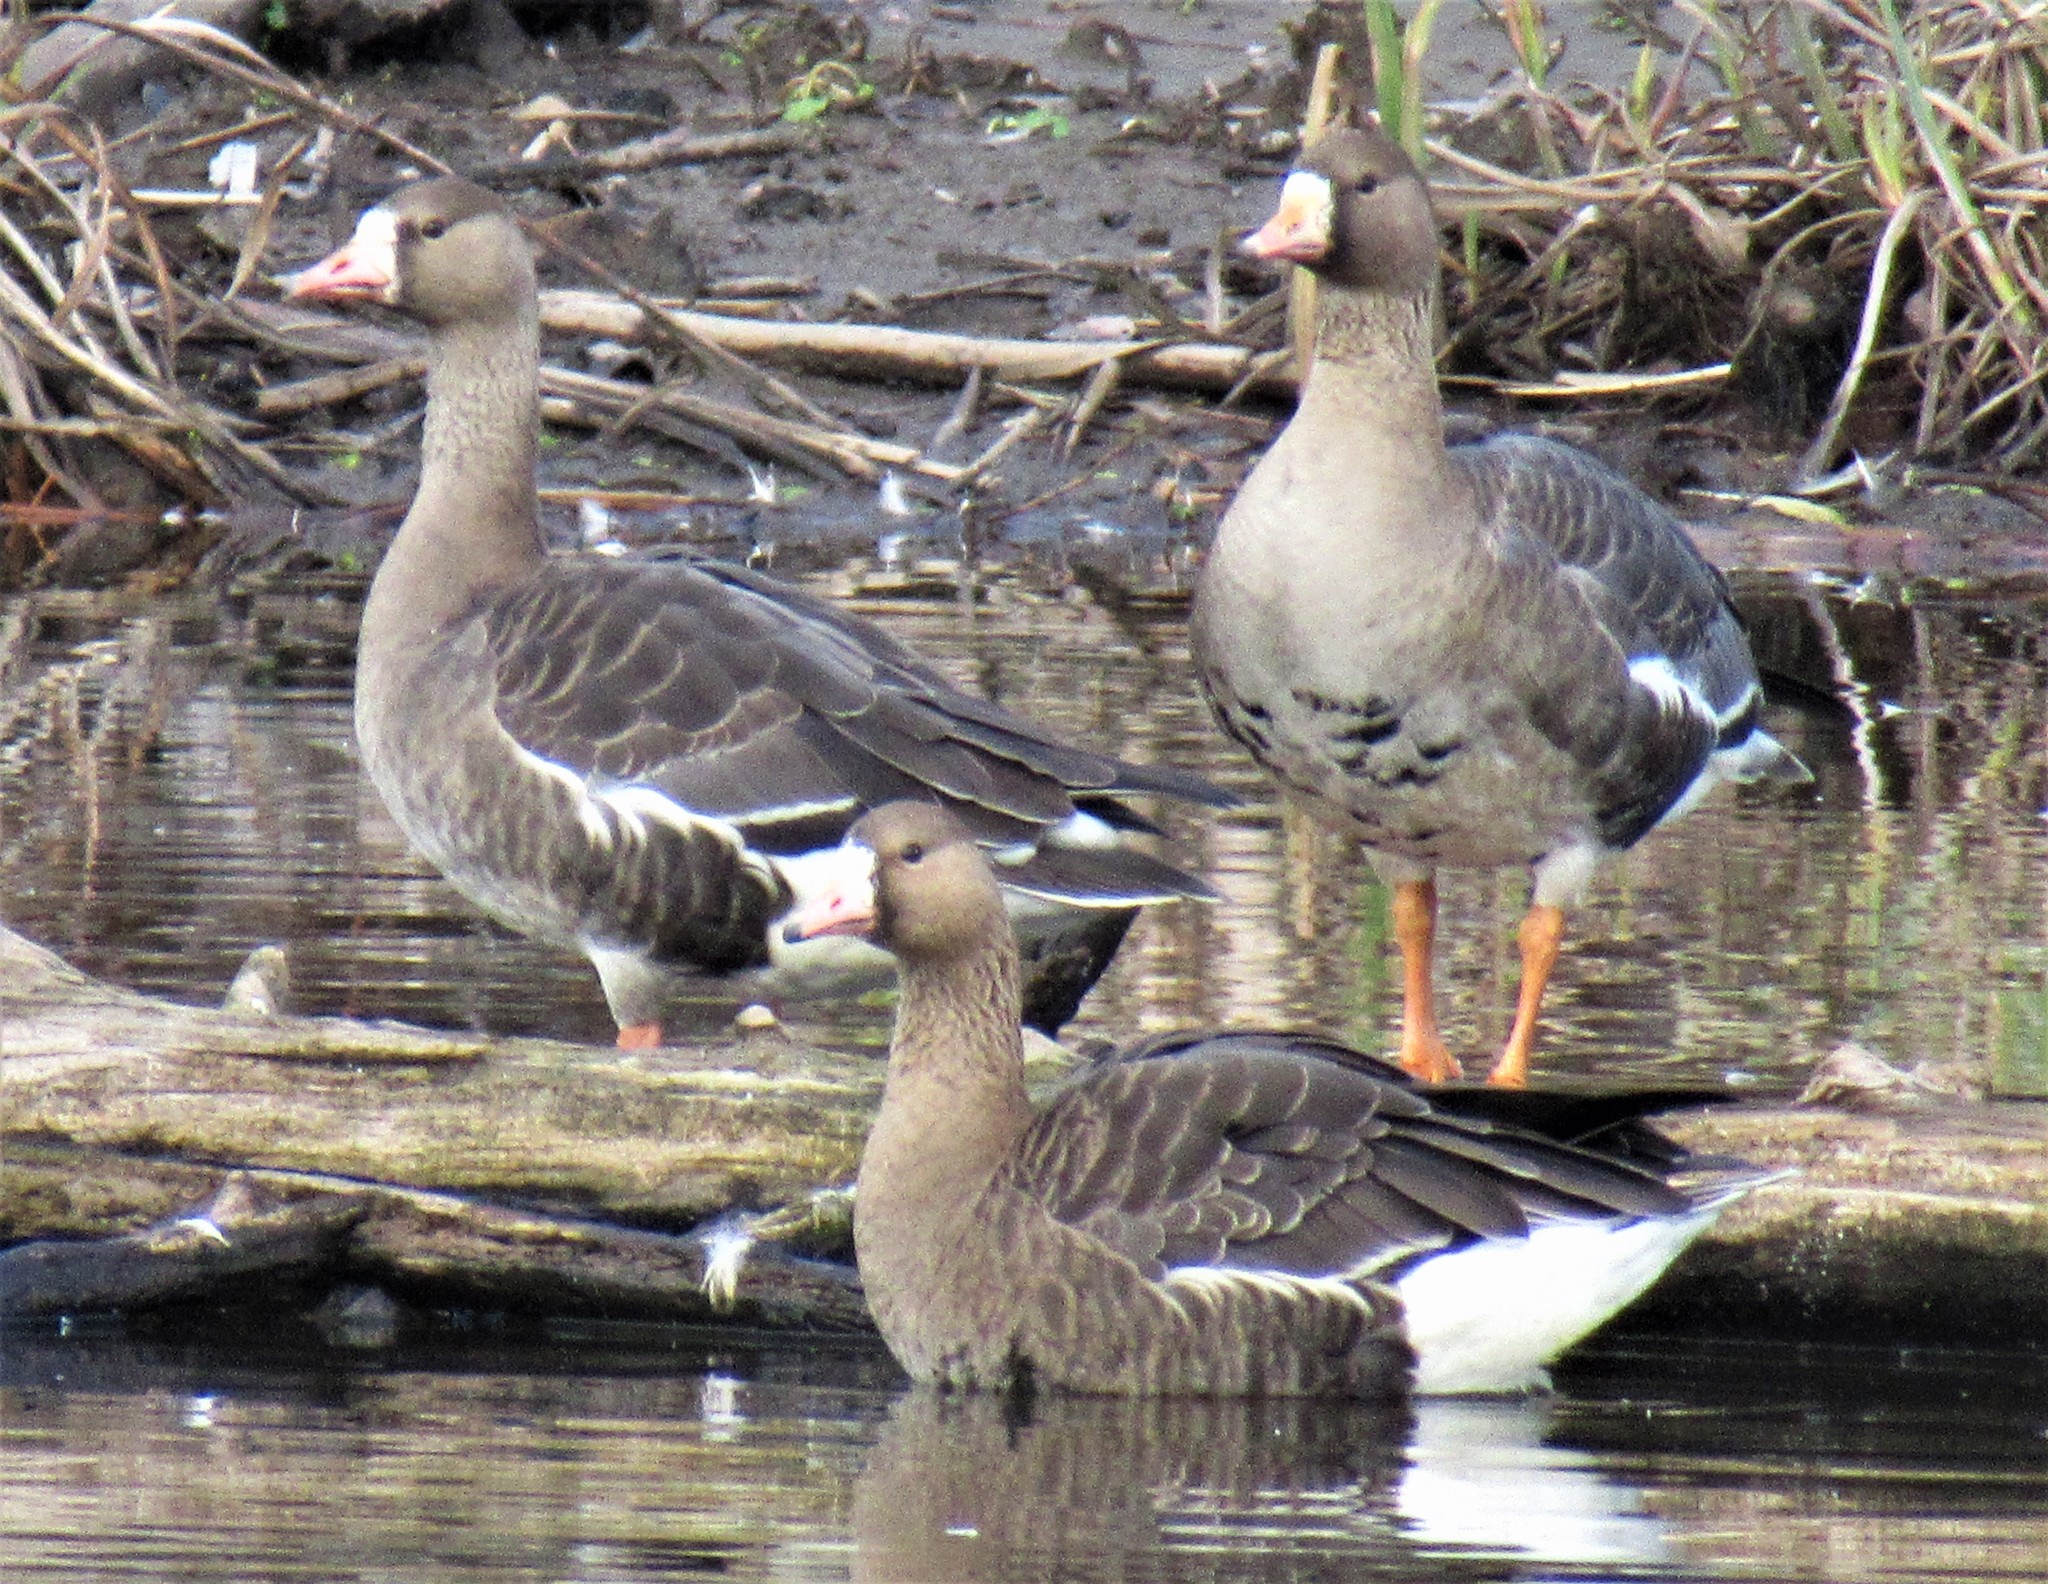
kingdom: Animalia
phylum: Chordata
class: Aves
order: Anseriformes
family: Anatidae
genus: Anser
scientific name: Anser albifrons
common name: Greater white-fronted goose
